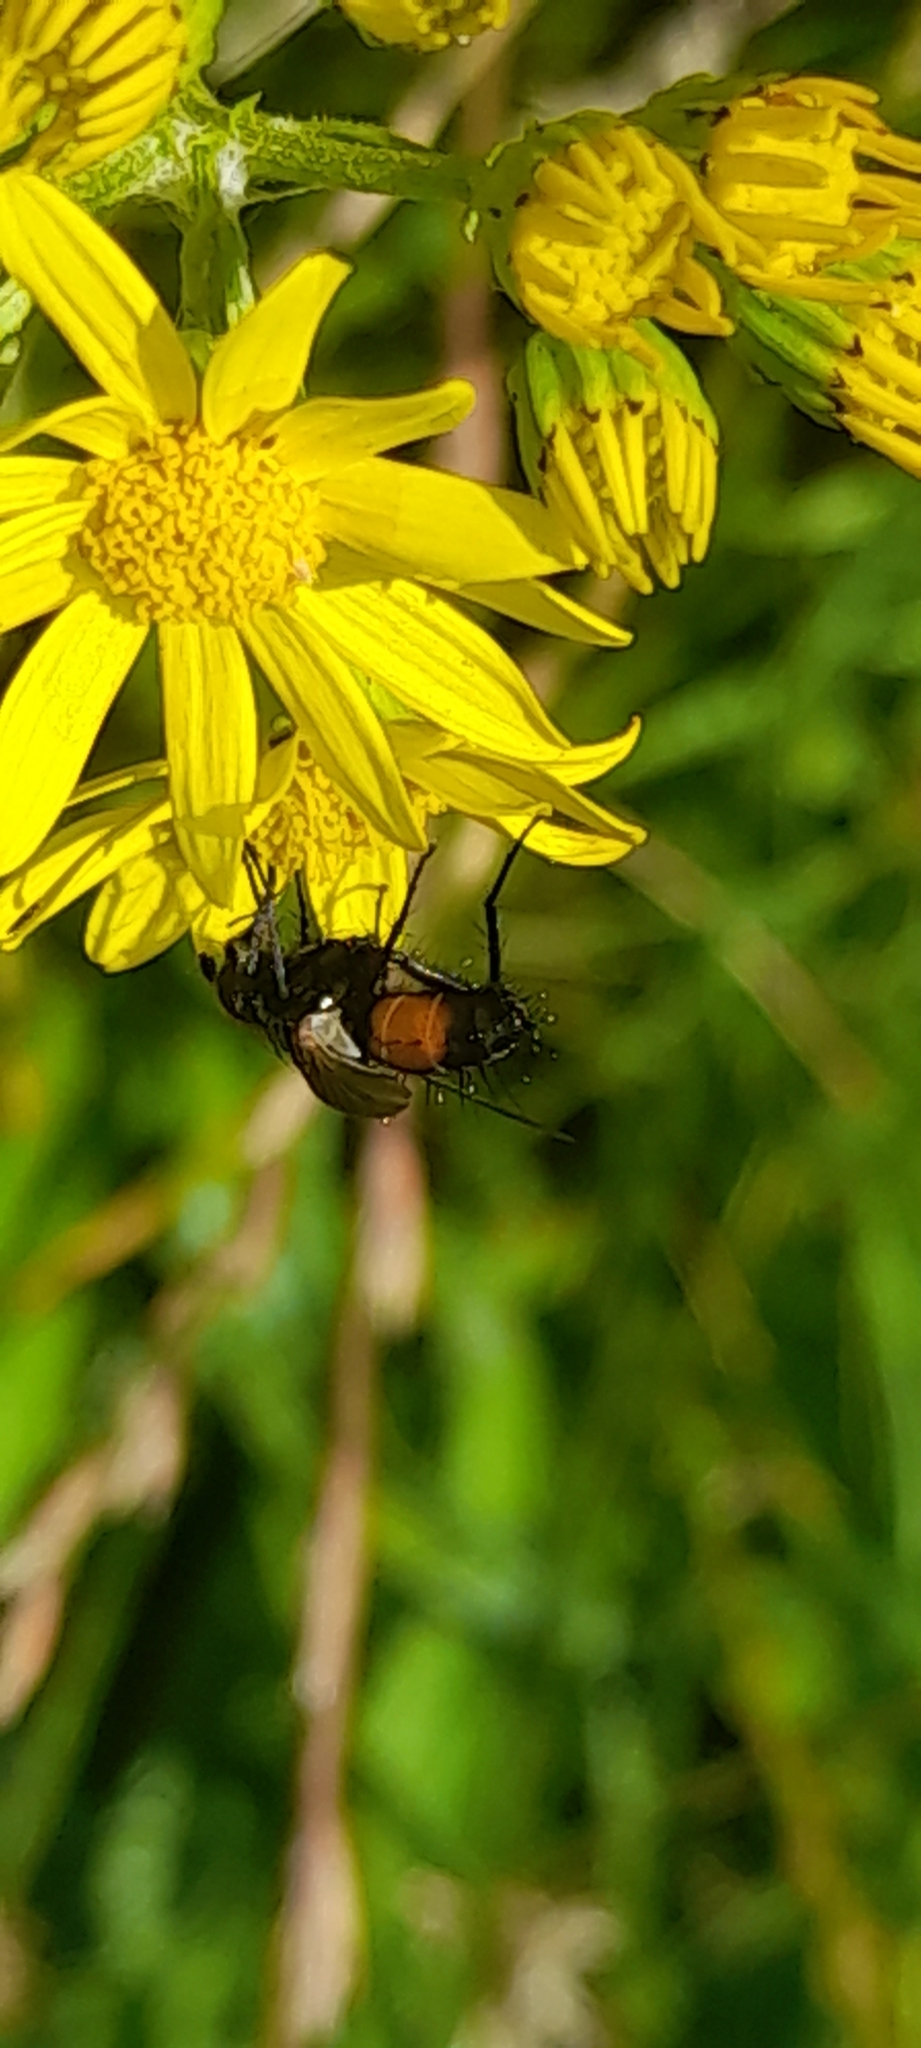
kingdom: Animalia
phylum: Arthropoda
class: Insecta
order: Diptera
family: Tachinidae
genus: Eriothrix
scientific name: Eriothrix rufomaculatus
